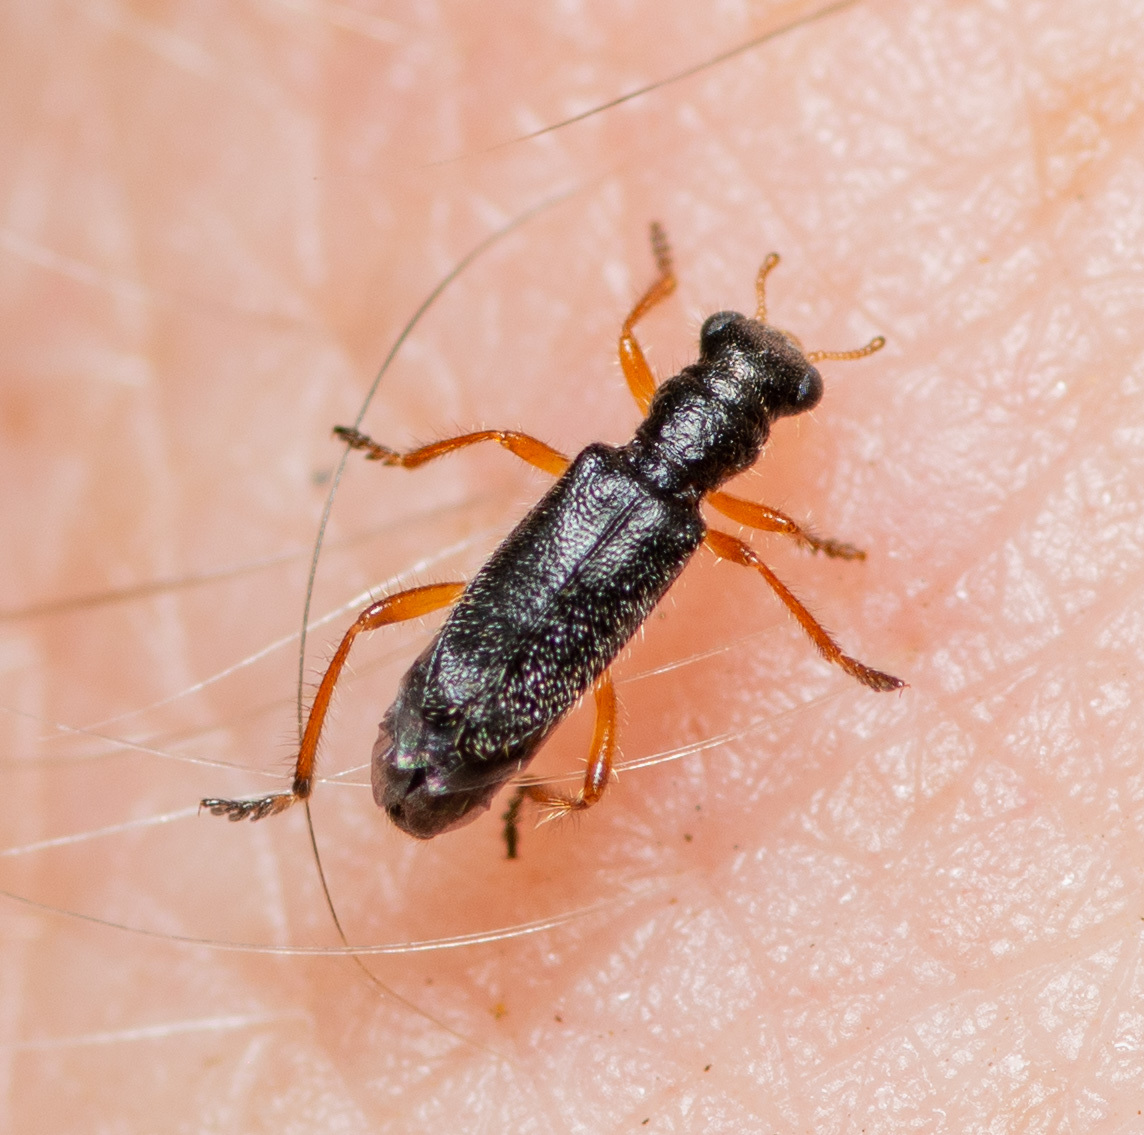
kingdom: Animalia
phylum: Arthropoda
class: Insecta
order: Coleoptera
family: Cleridae
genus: Wolcottia
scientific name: Wolcottia pedalis
